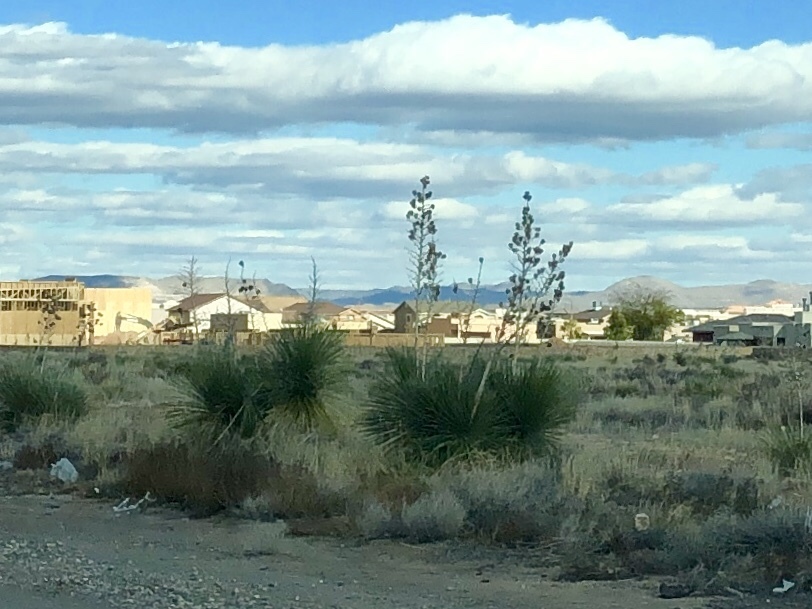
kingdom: Plantae
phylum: Tracheophyta
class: Liliopsida
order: Asparagales
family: Asparagaceae
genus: Yucca
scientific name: Yucca elata
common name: Palmella
